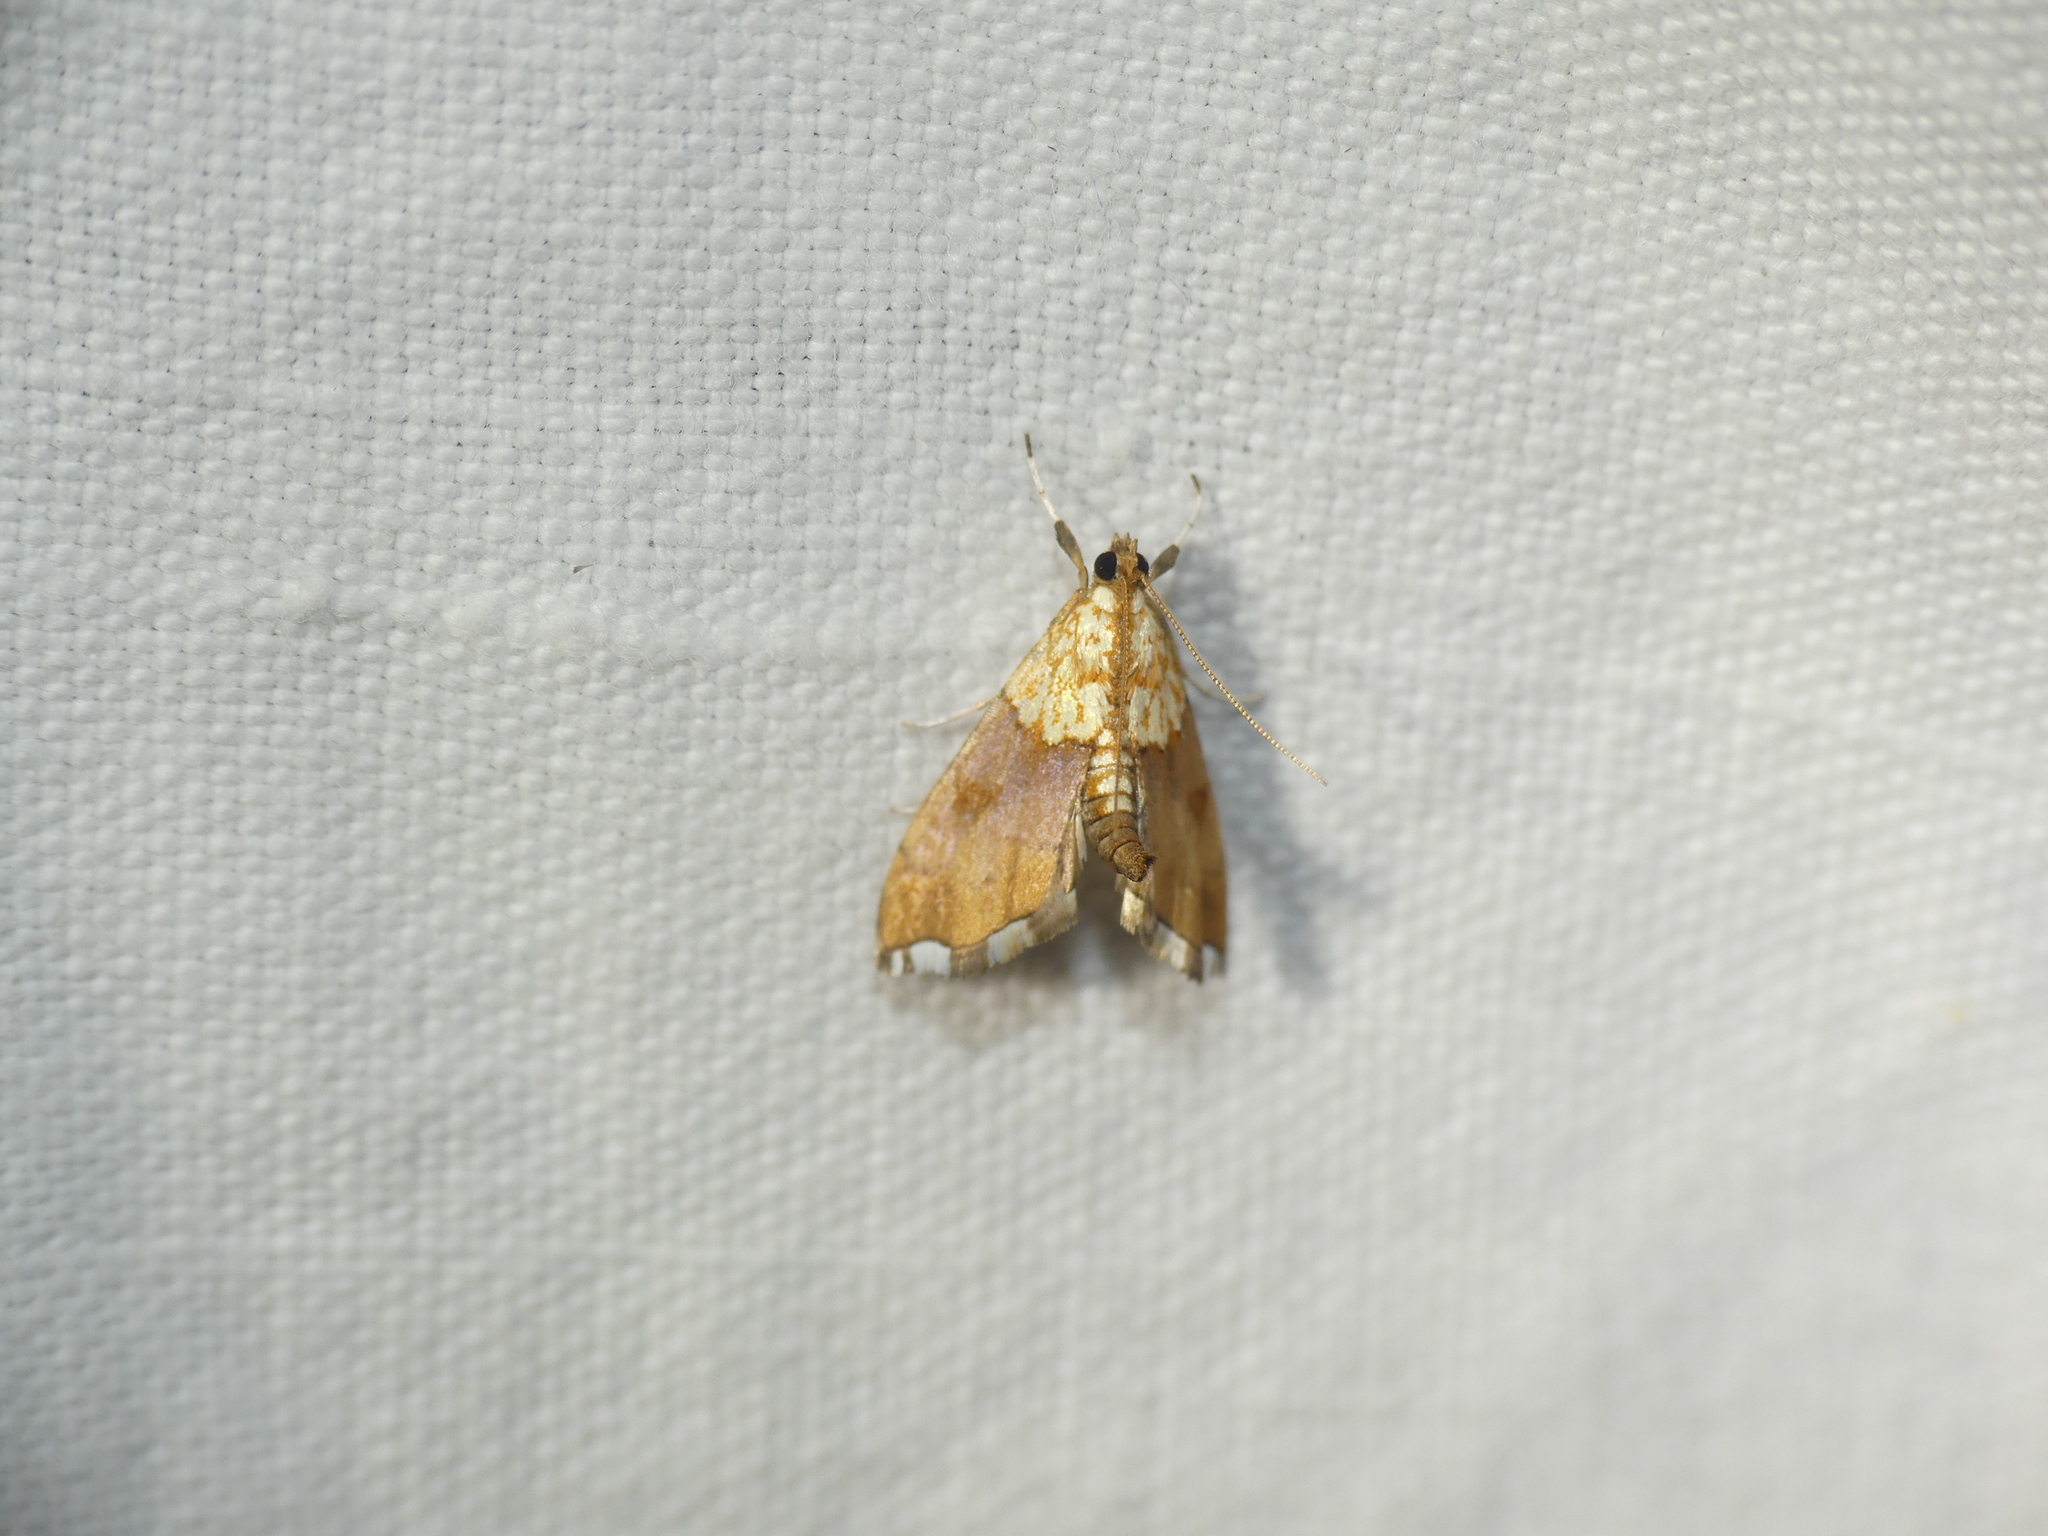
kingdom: Animalia
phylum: Arthropoda
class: Insecta
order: Lepidoptera
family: Crambidae
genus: Agrotera
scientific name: Agrotera nemoralis
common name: Beautiful pearl
